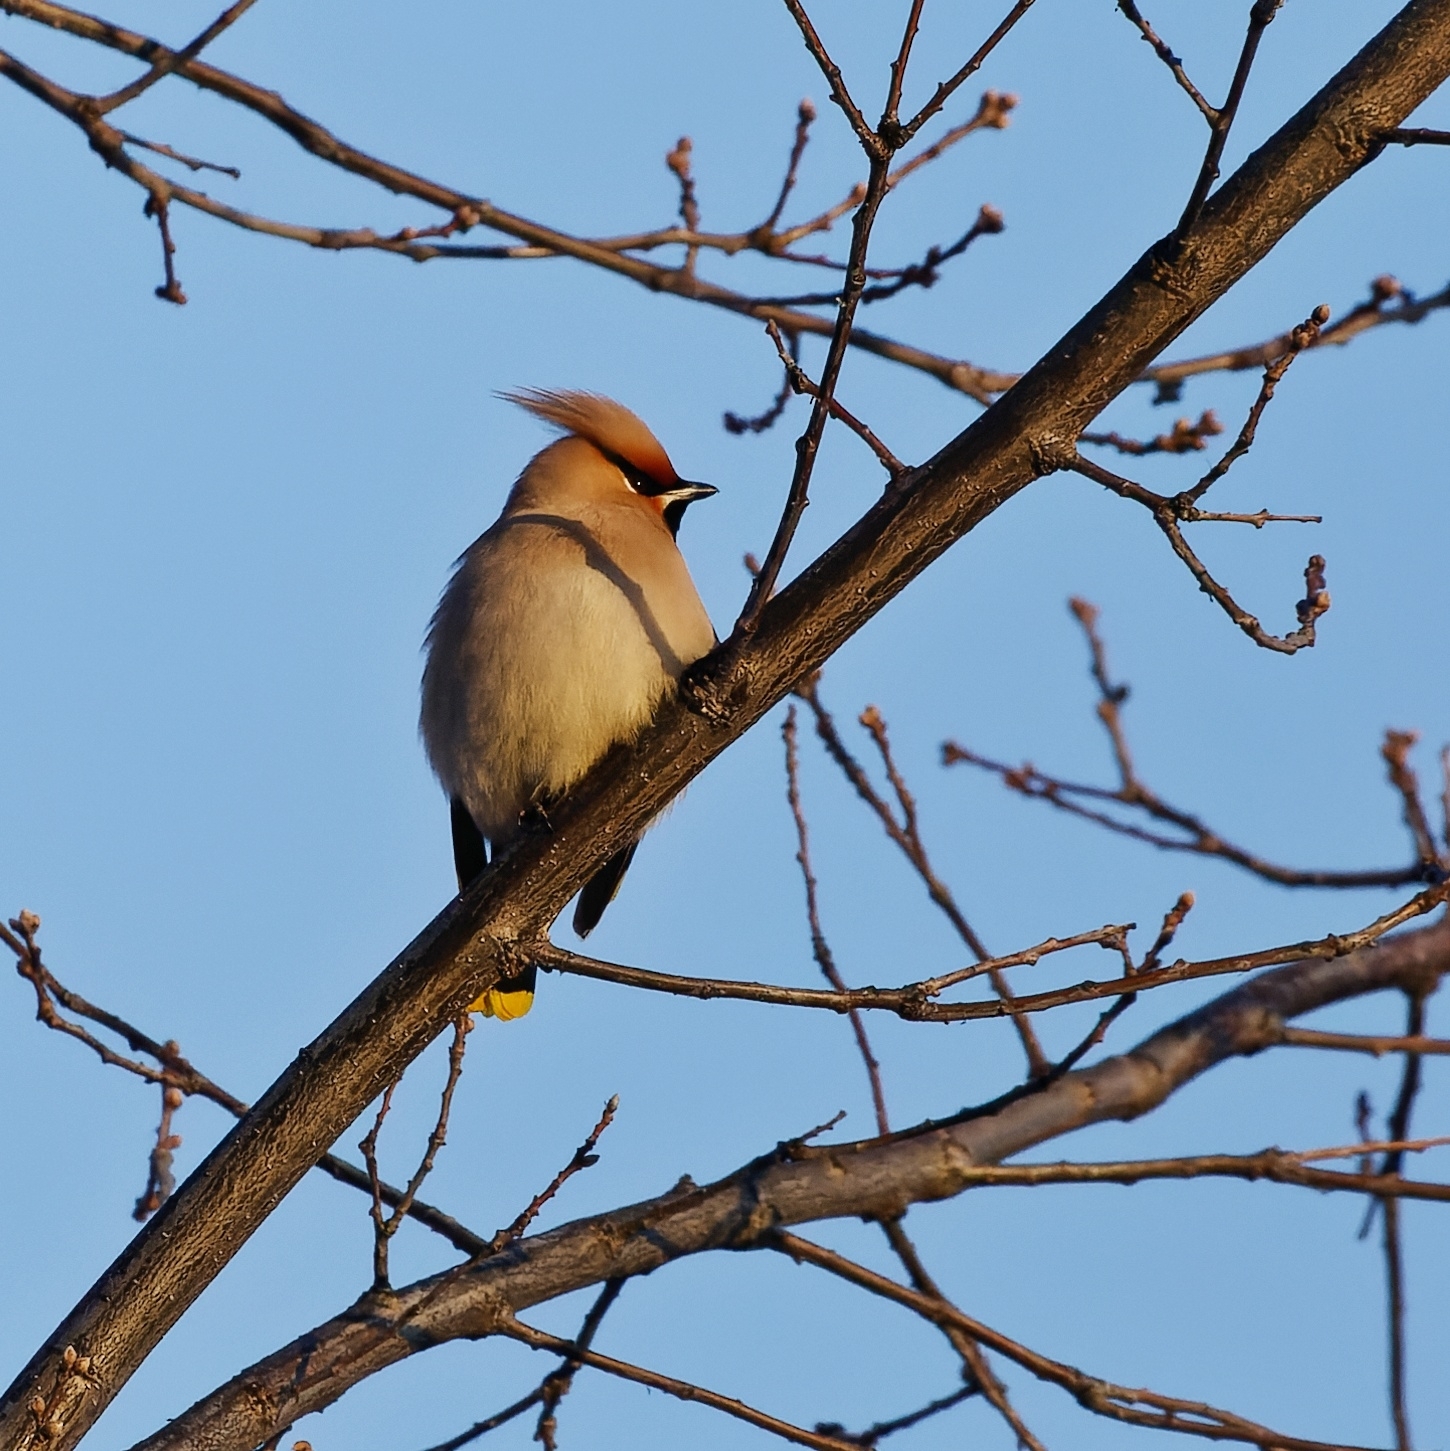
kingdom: Animalia
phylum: Chordata
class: Aves
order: Passeriformes
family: Bombycillidae
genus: Bombycilla
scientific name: Bombycilla garrulus
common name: Bohemian waxwing
